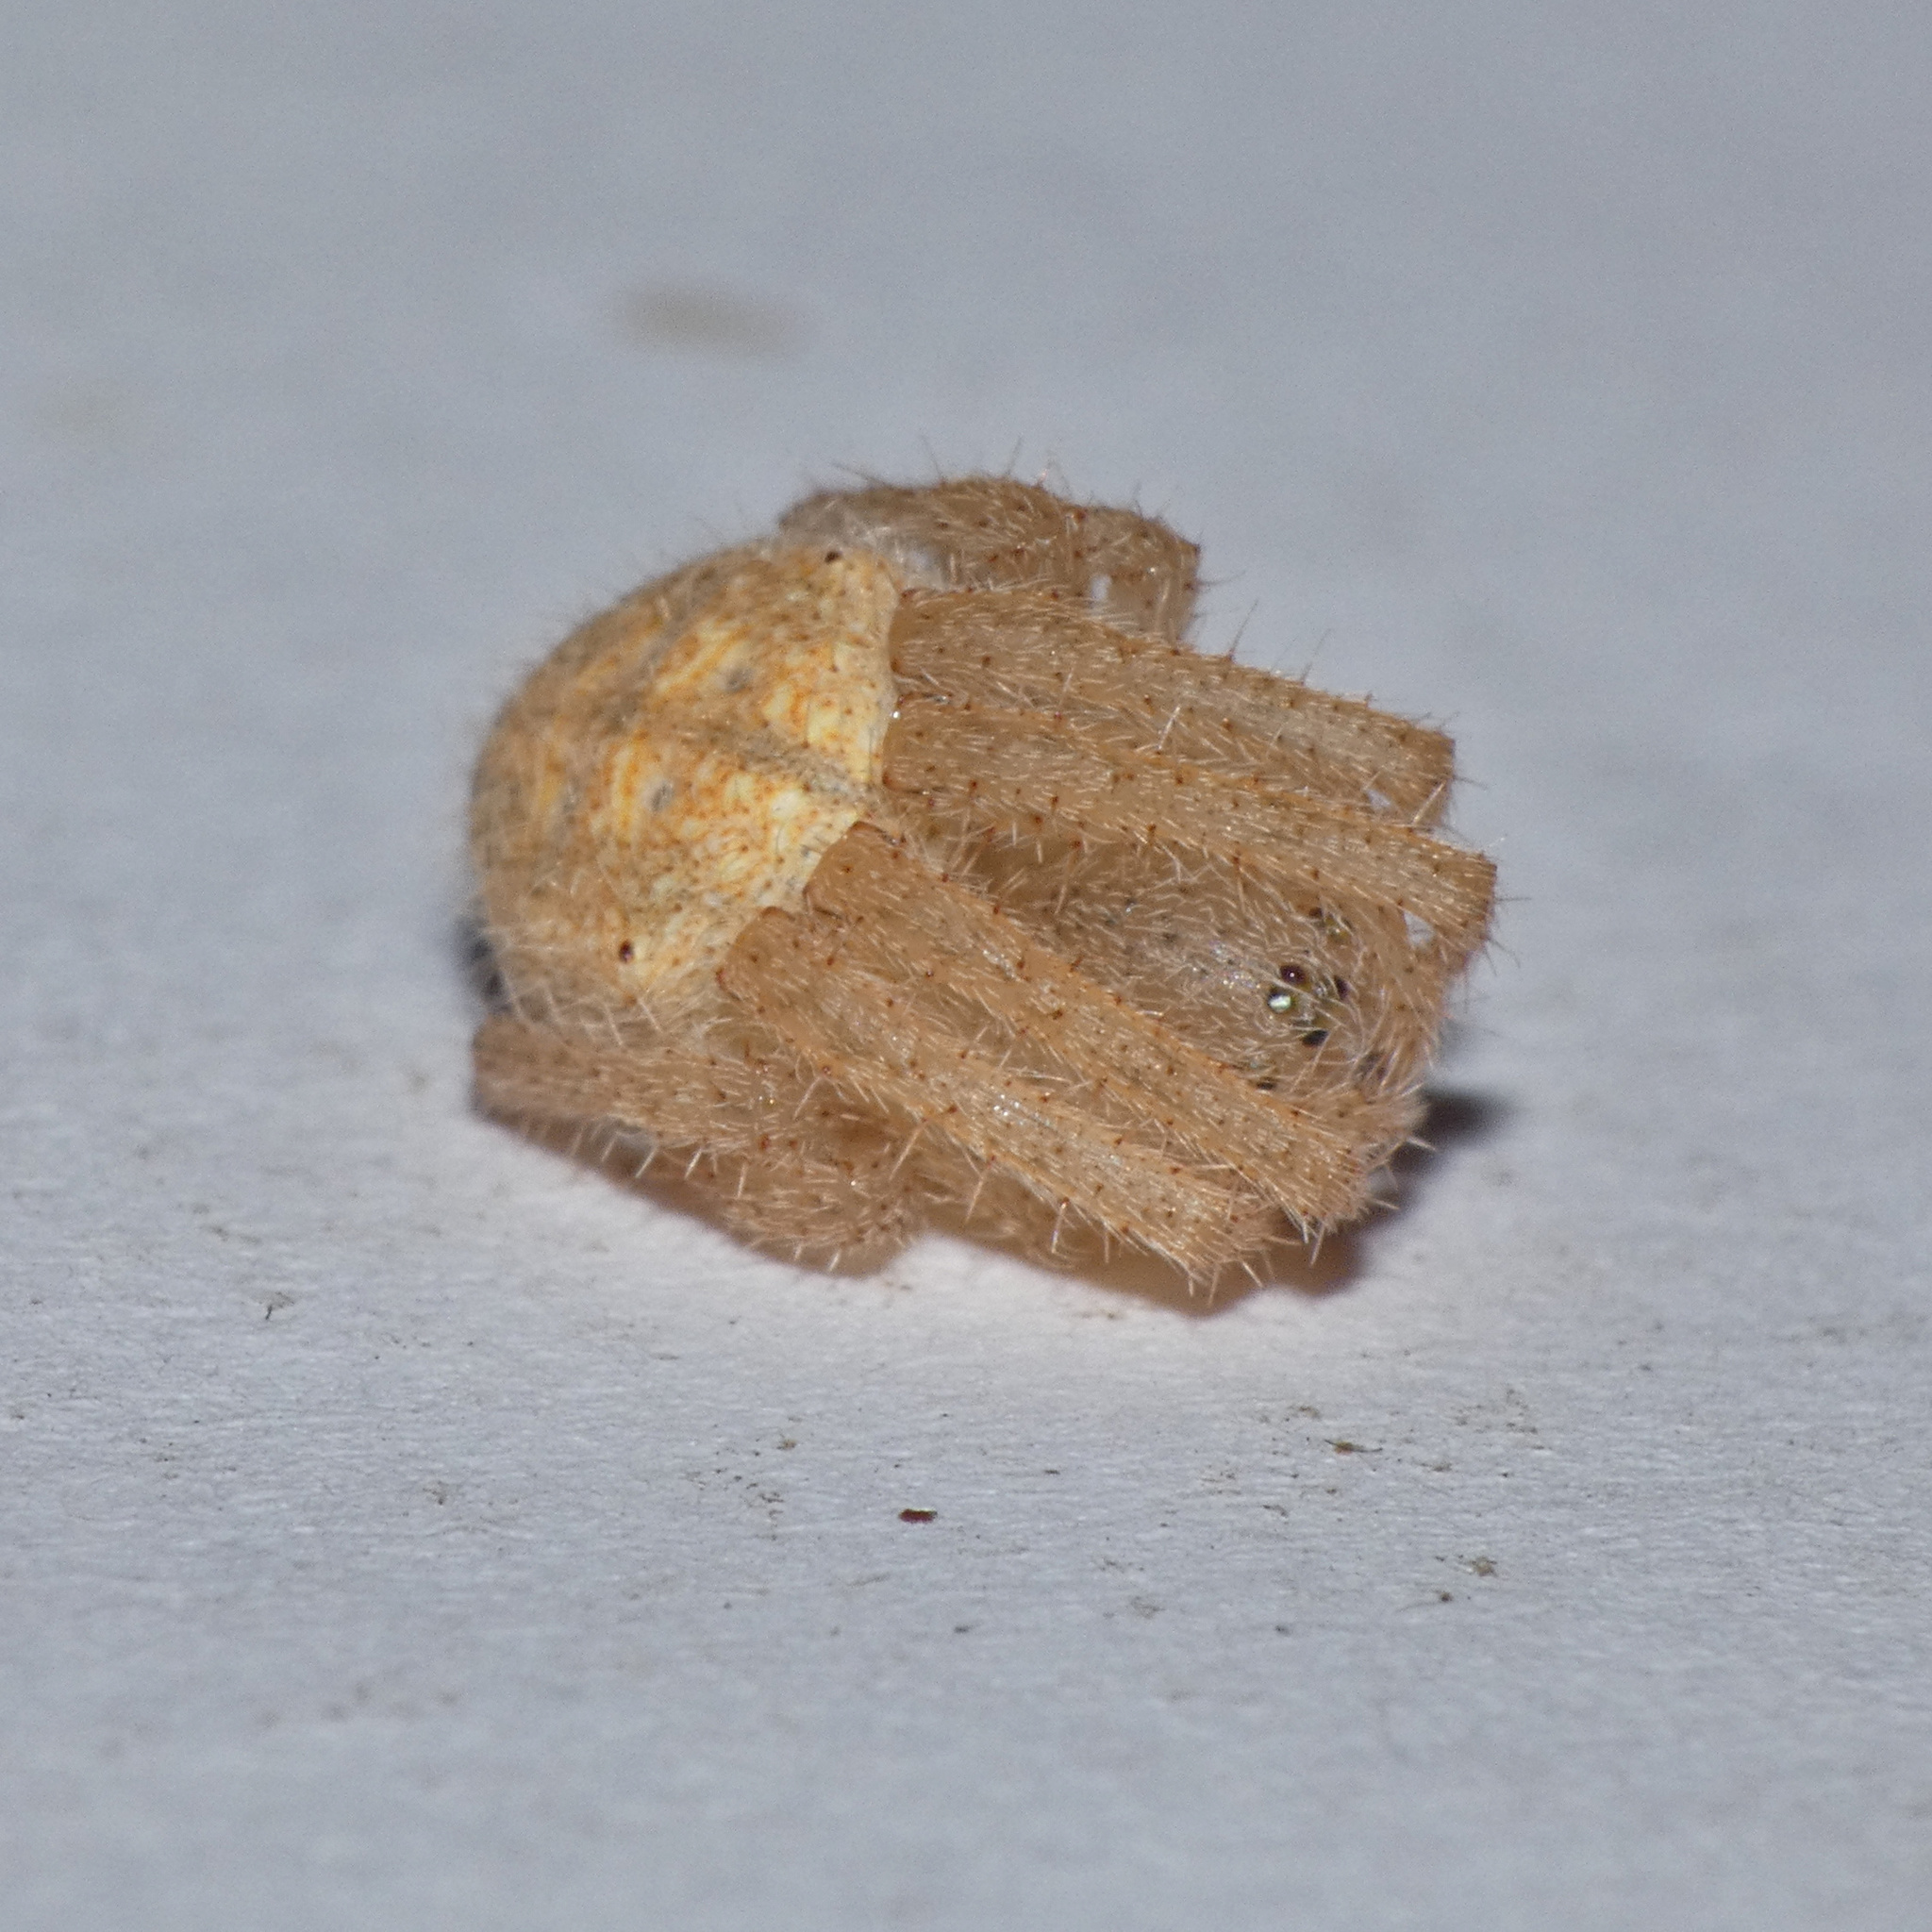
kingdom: Animalia
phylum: Arthropoda
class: Arachnida
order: Araneae
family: Araneidae
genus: Pararaneus
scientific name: Pararaneus cyrtoscapus
